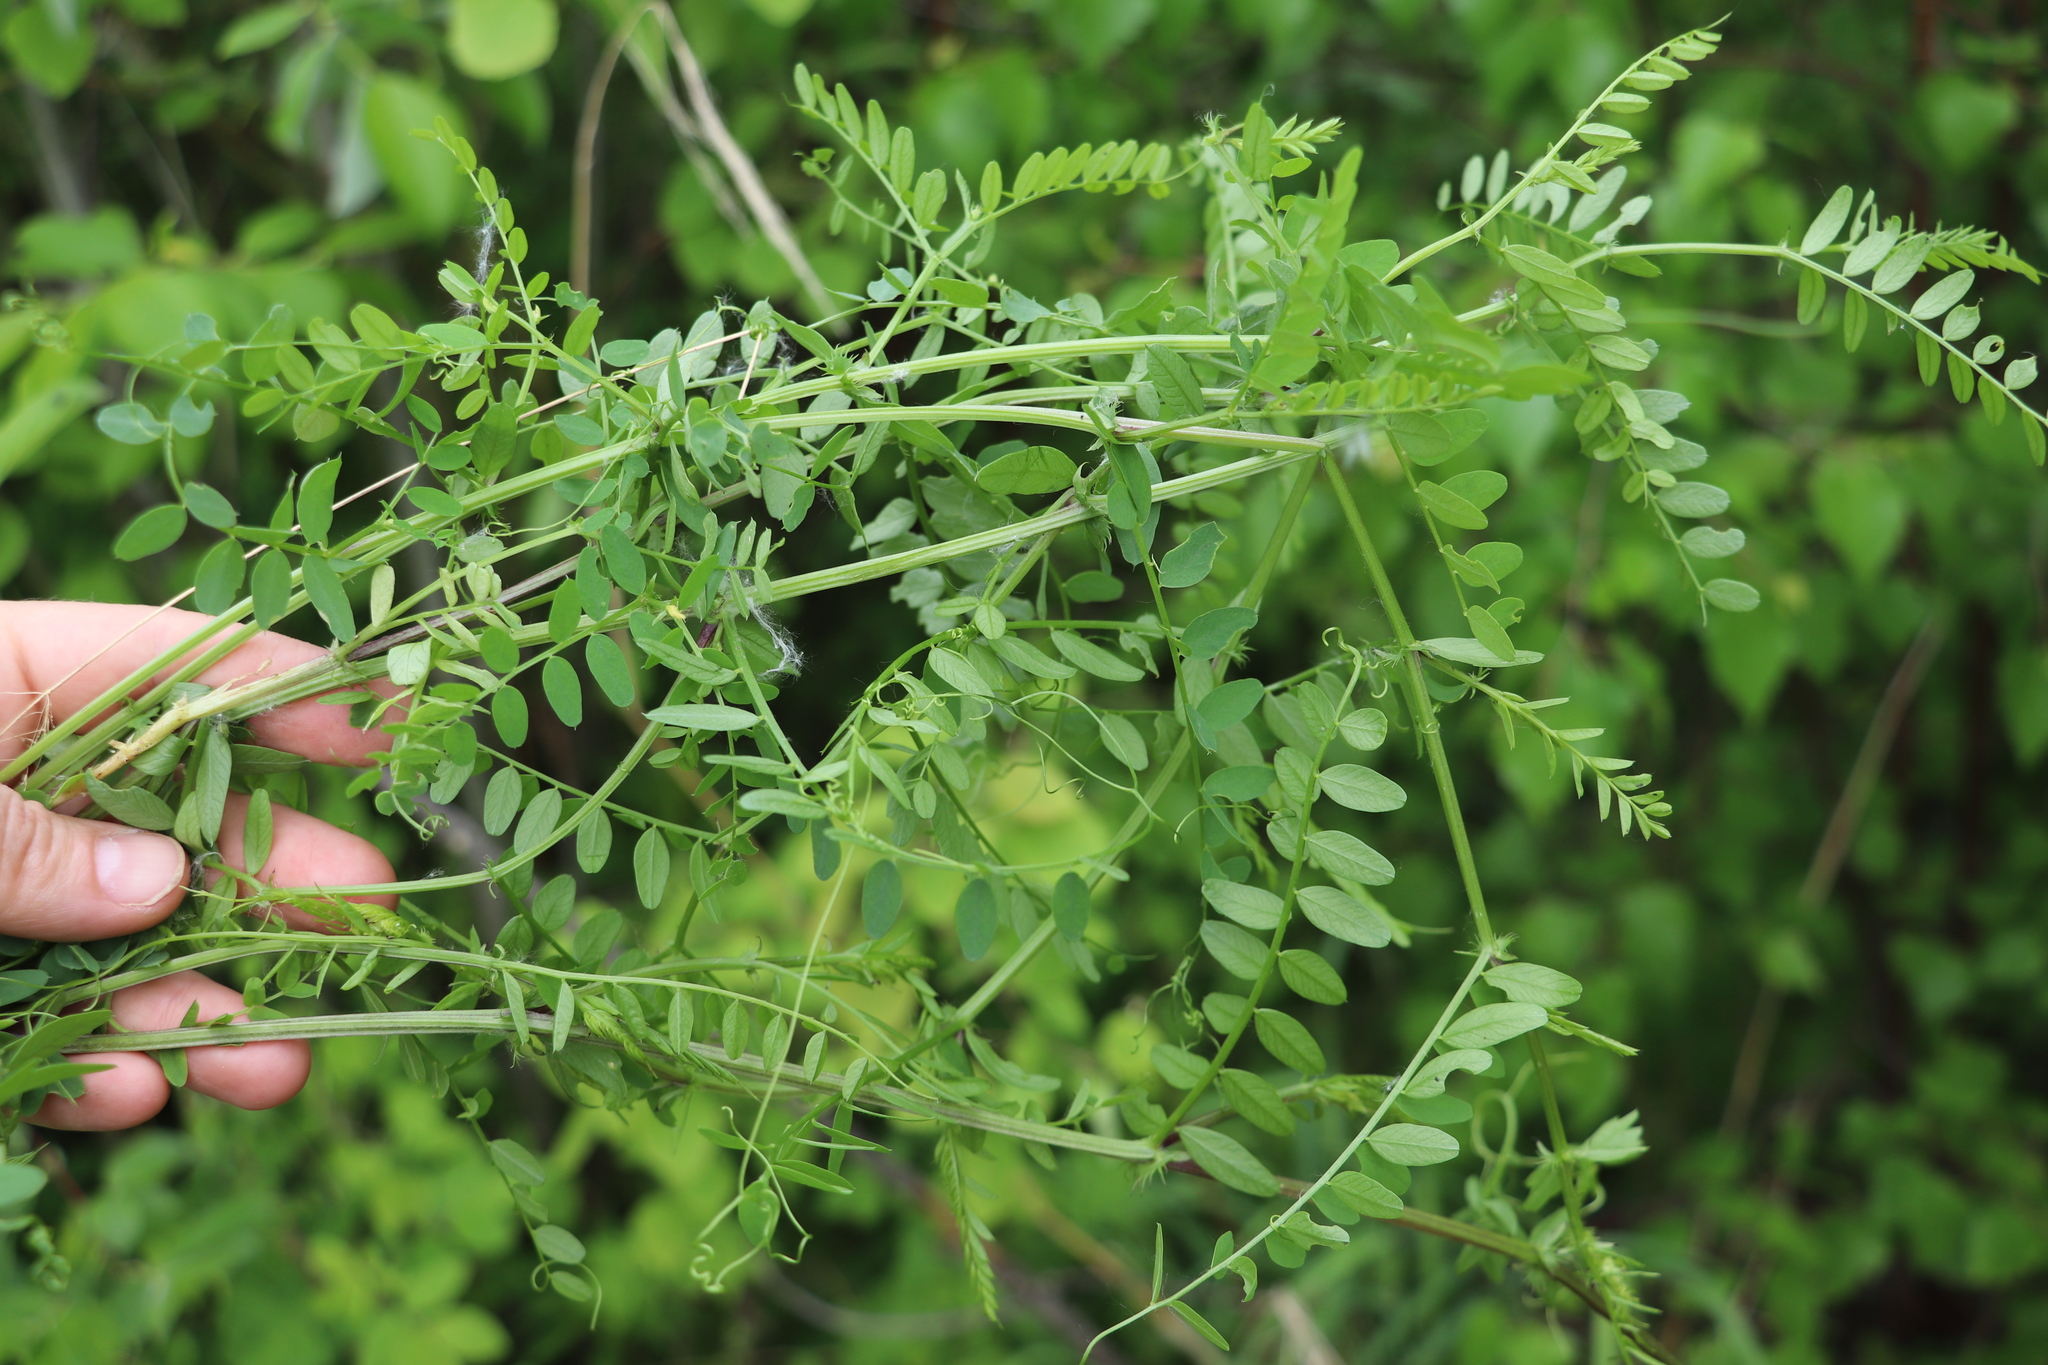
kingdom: Plantae
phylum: Tracheophyta
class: Magnoliopsida
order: Fabales
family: Fabaceae
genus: Vicia
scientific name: Vicia sylvatica
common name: Wood vetch
